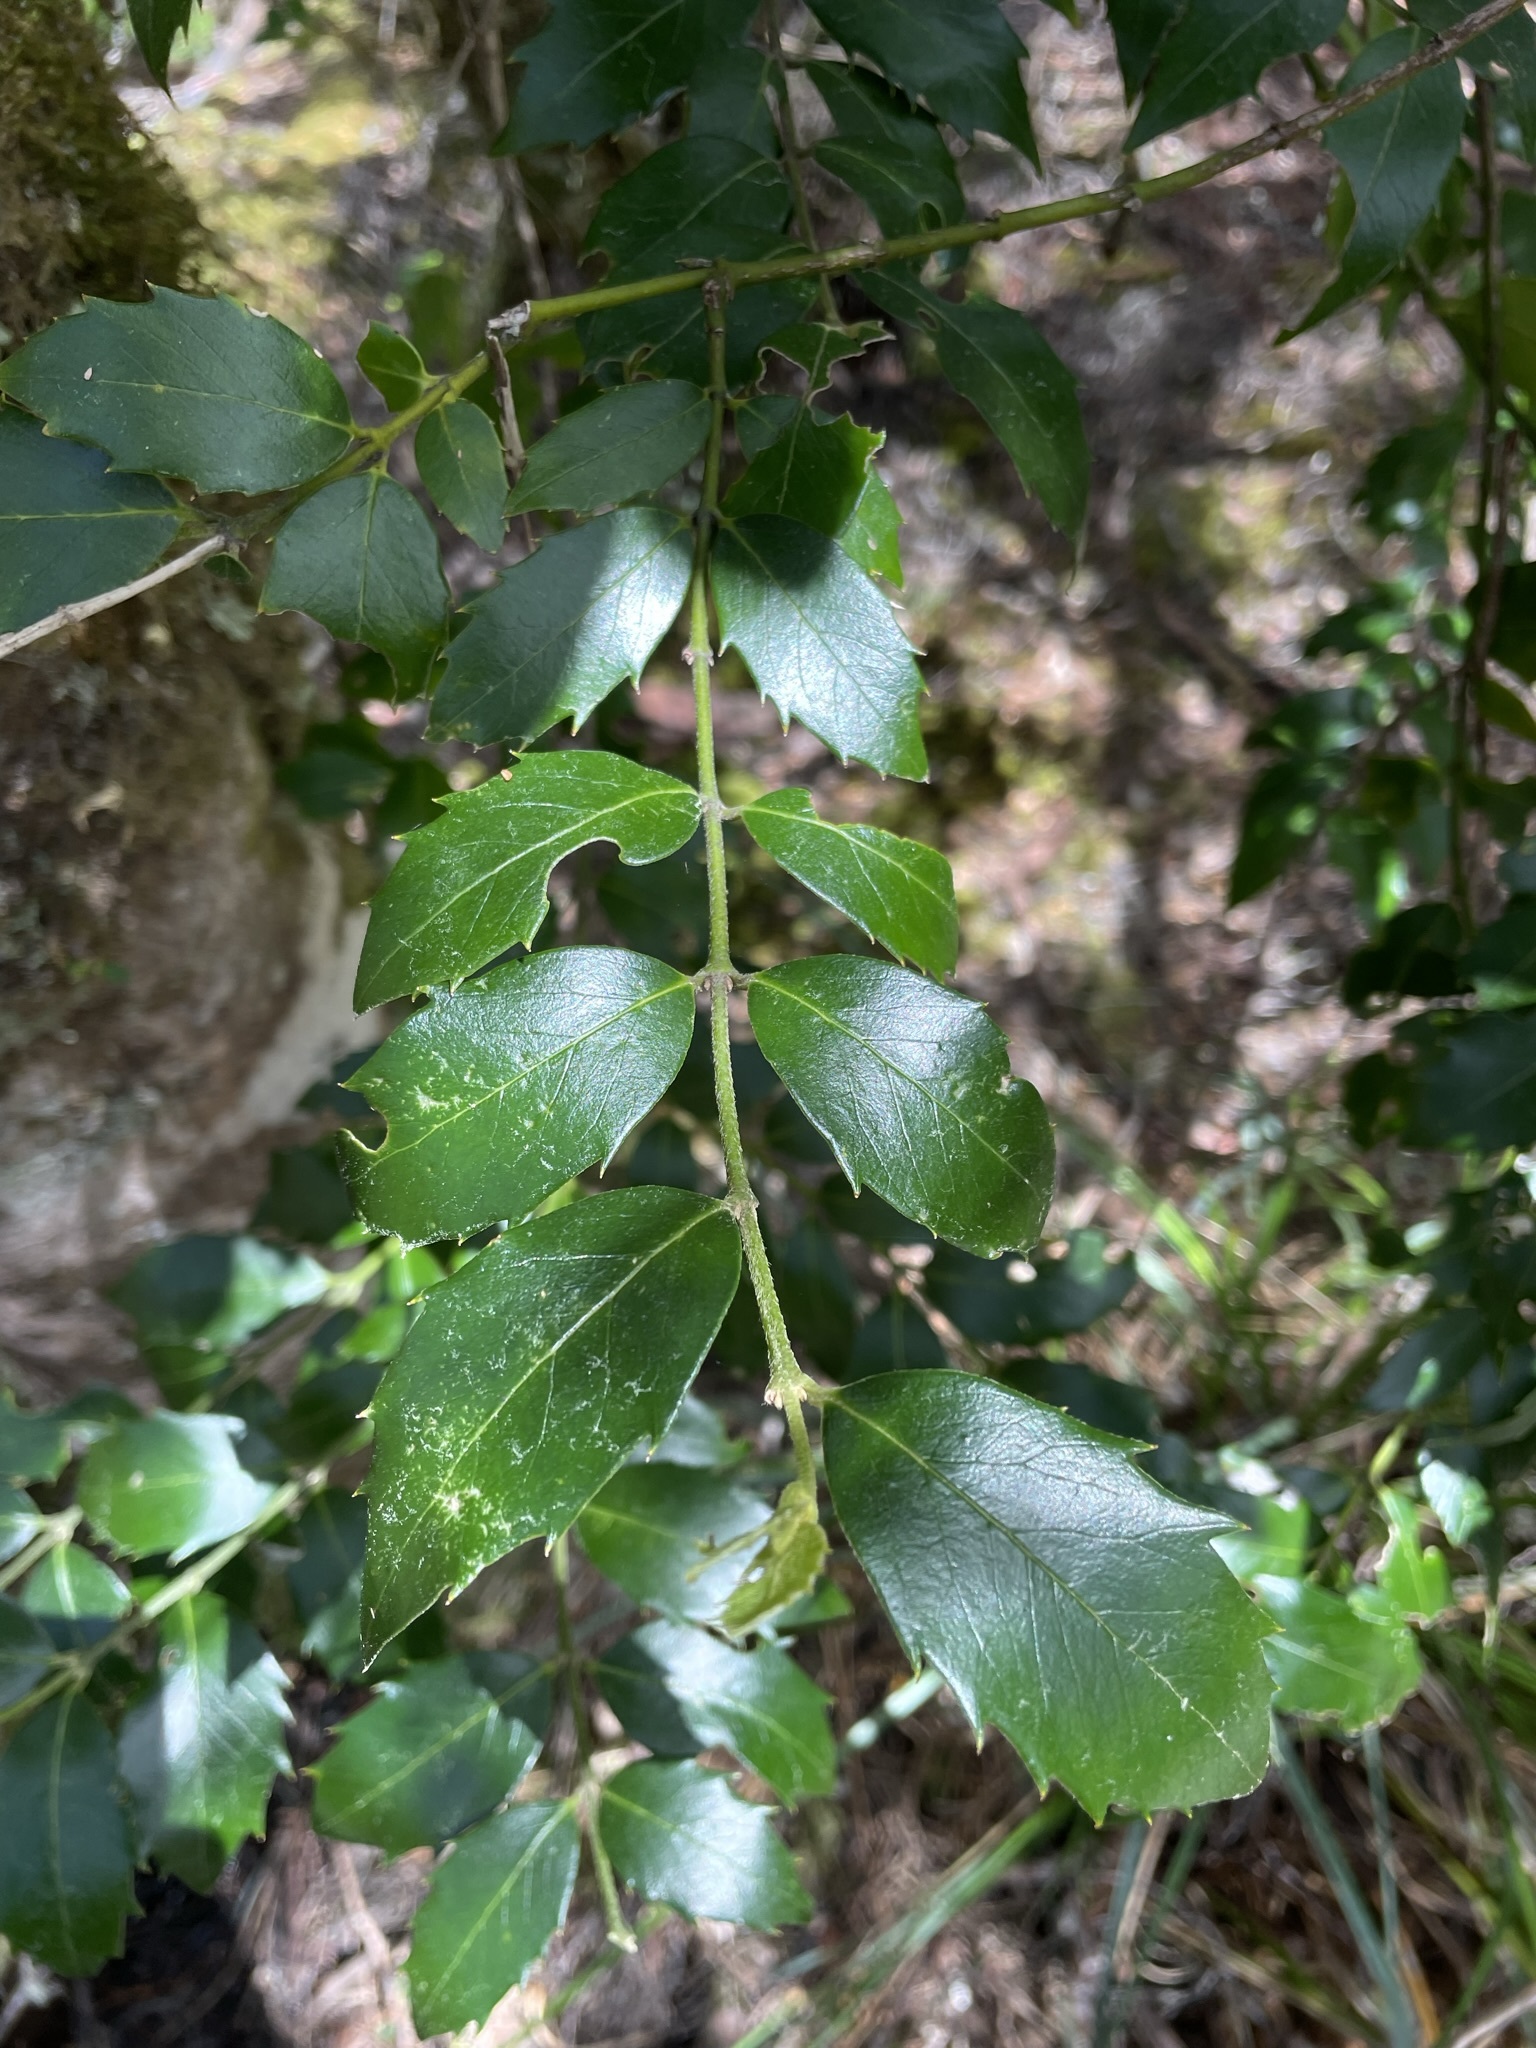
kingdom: Plantae
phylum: Tracheophyta
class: Magnoliopsida
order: Laurales
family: Atherospermataceae
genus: Atherosperma
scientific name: Atherosperma moschatum
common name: Tasmanian-sassafras
